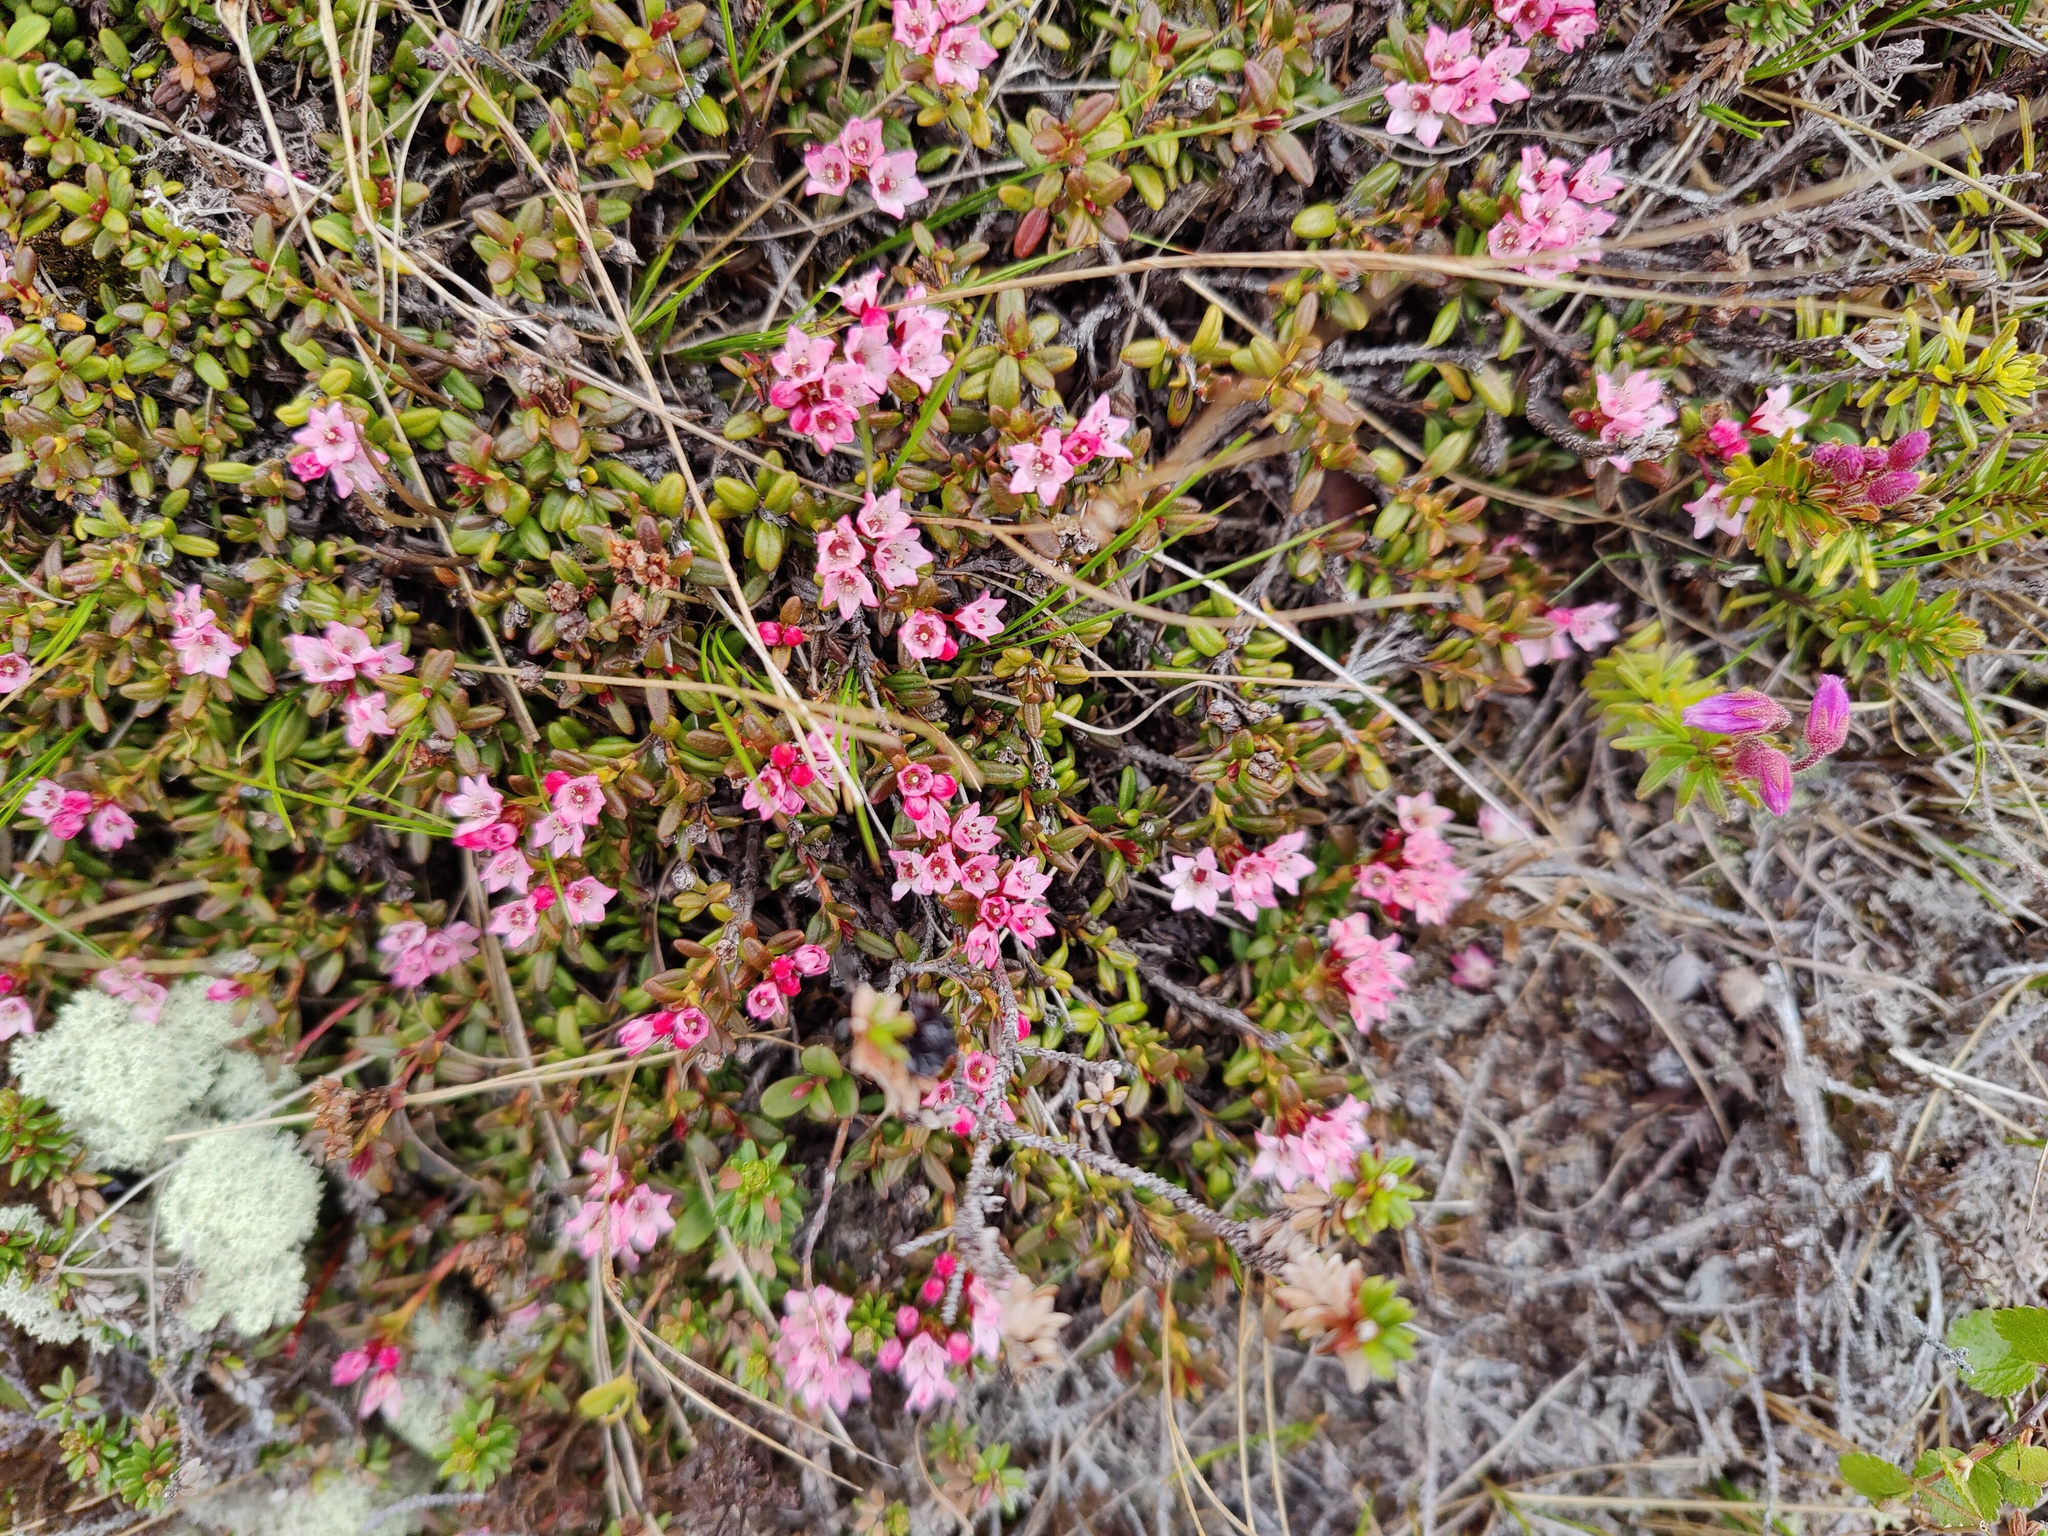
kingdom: Plantae
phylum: Tracheophyta
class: Magnoliopsida
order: Ericales
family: Ericaceae
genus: Kalmia
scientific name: Kalmia procumbens
